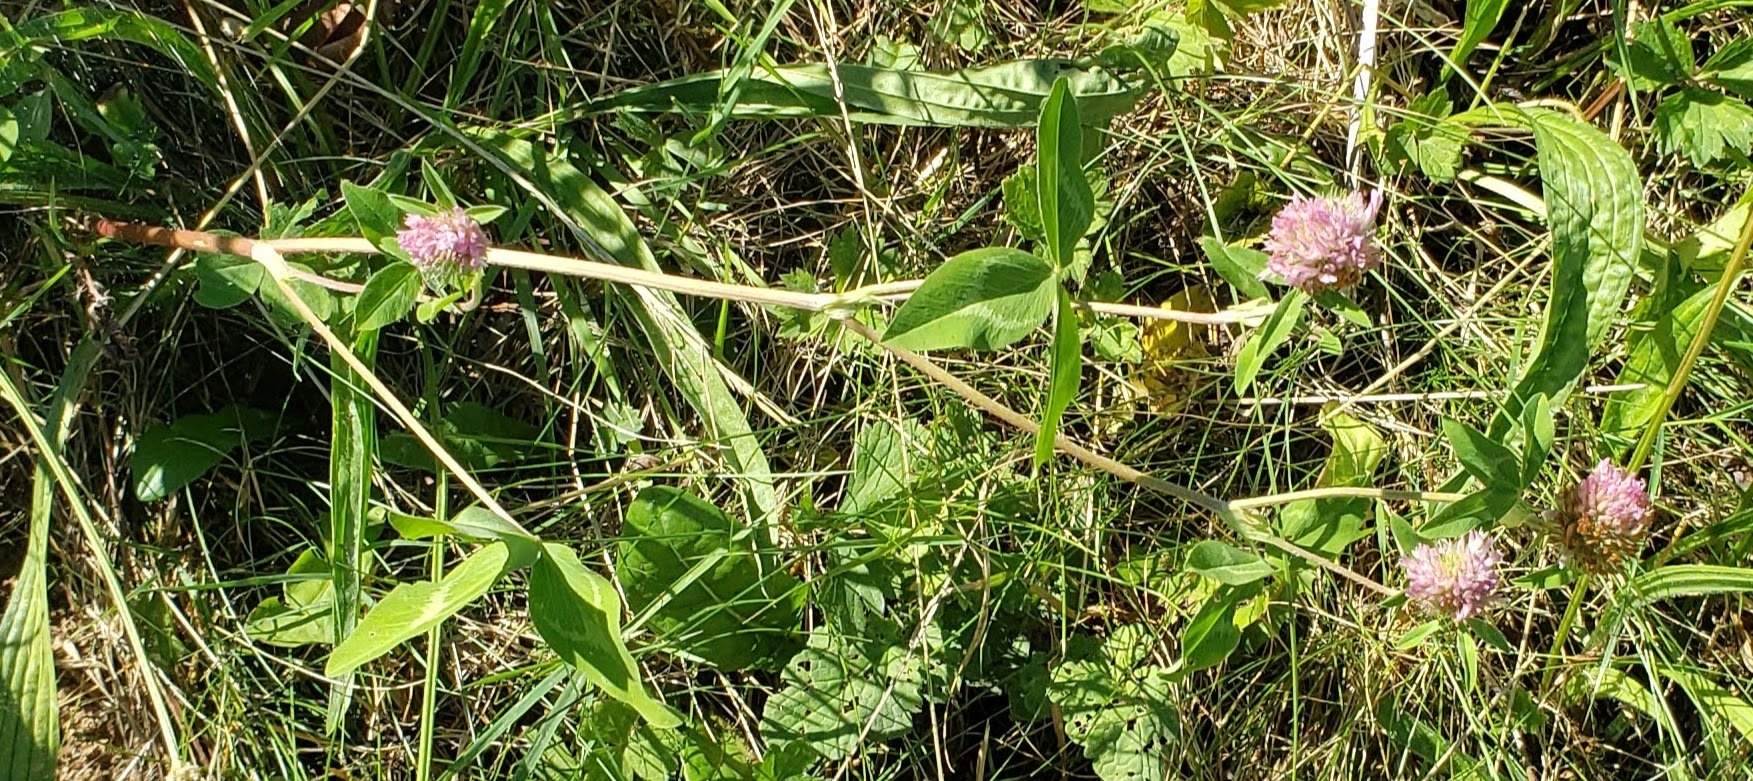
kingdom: Plantae
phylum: Tracheophyta
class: Magnoliopsida
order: Fabales
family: Fabaceae
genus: Trifolium
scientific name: Trifolium pratense
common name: Red clover
